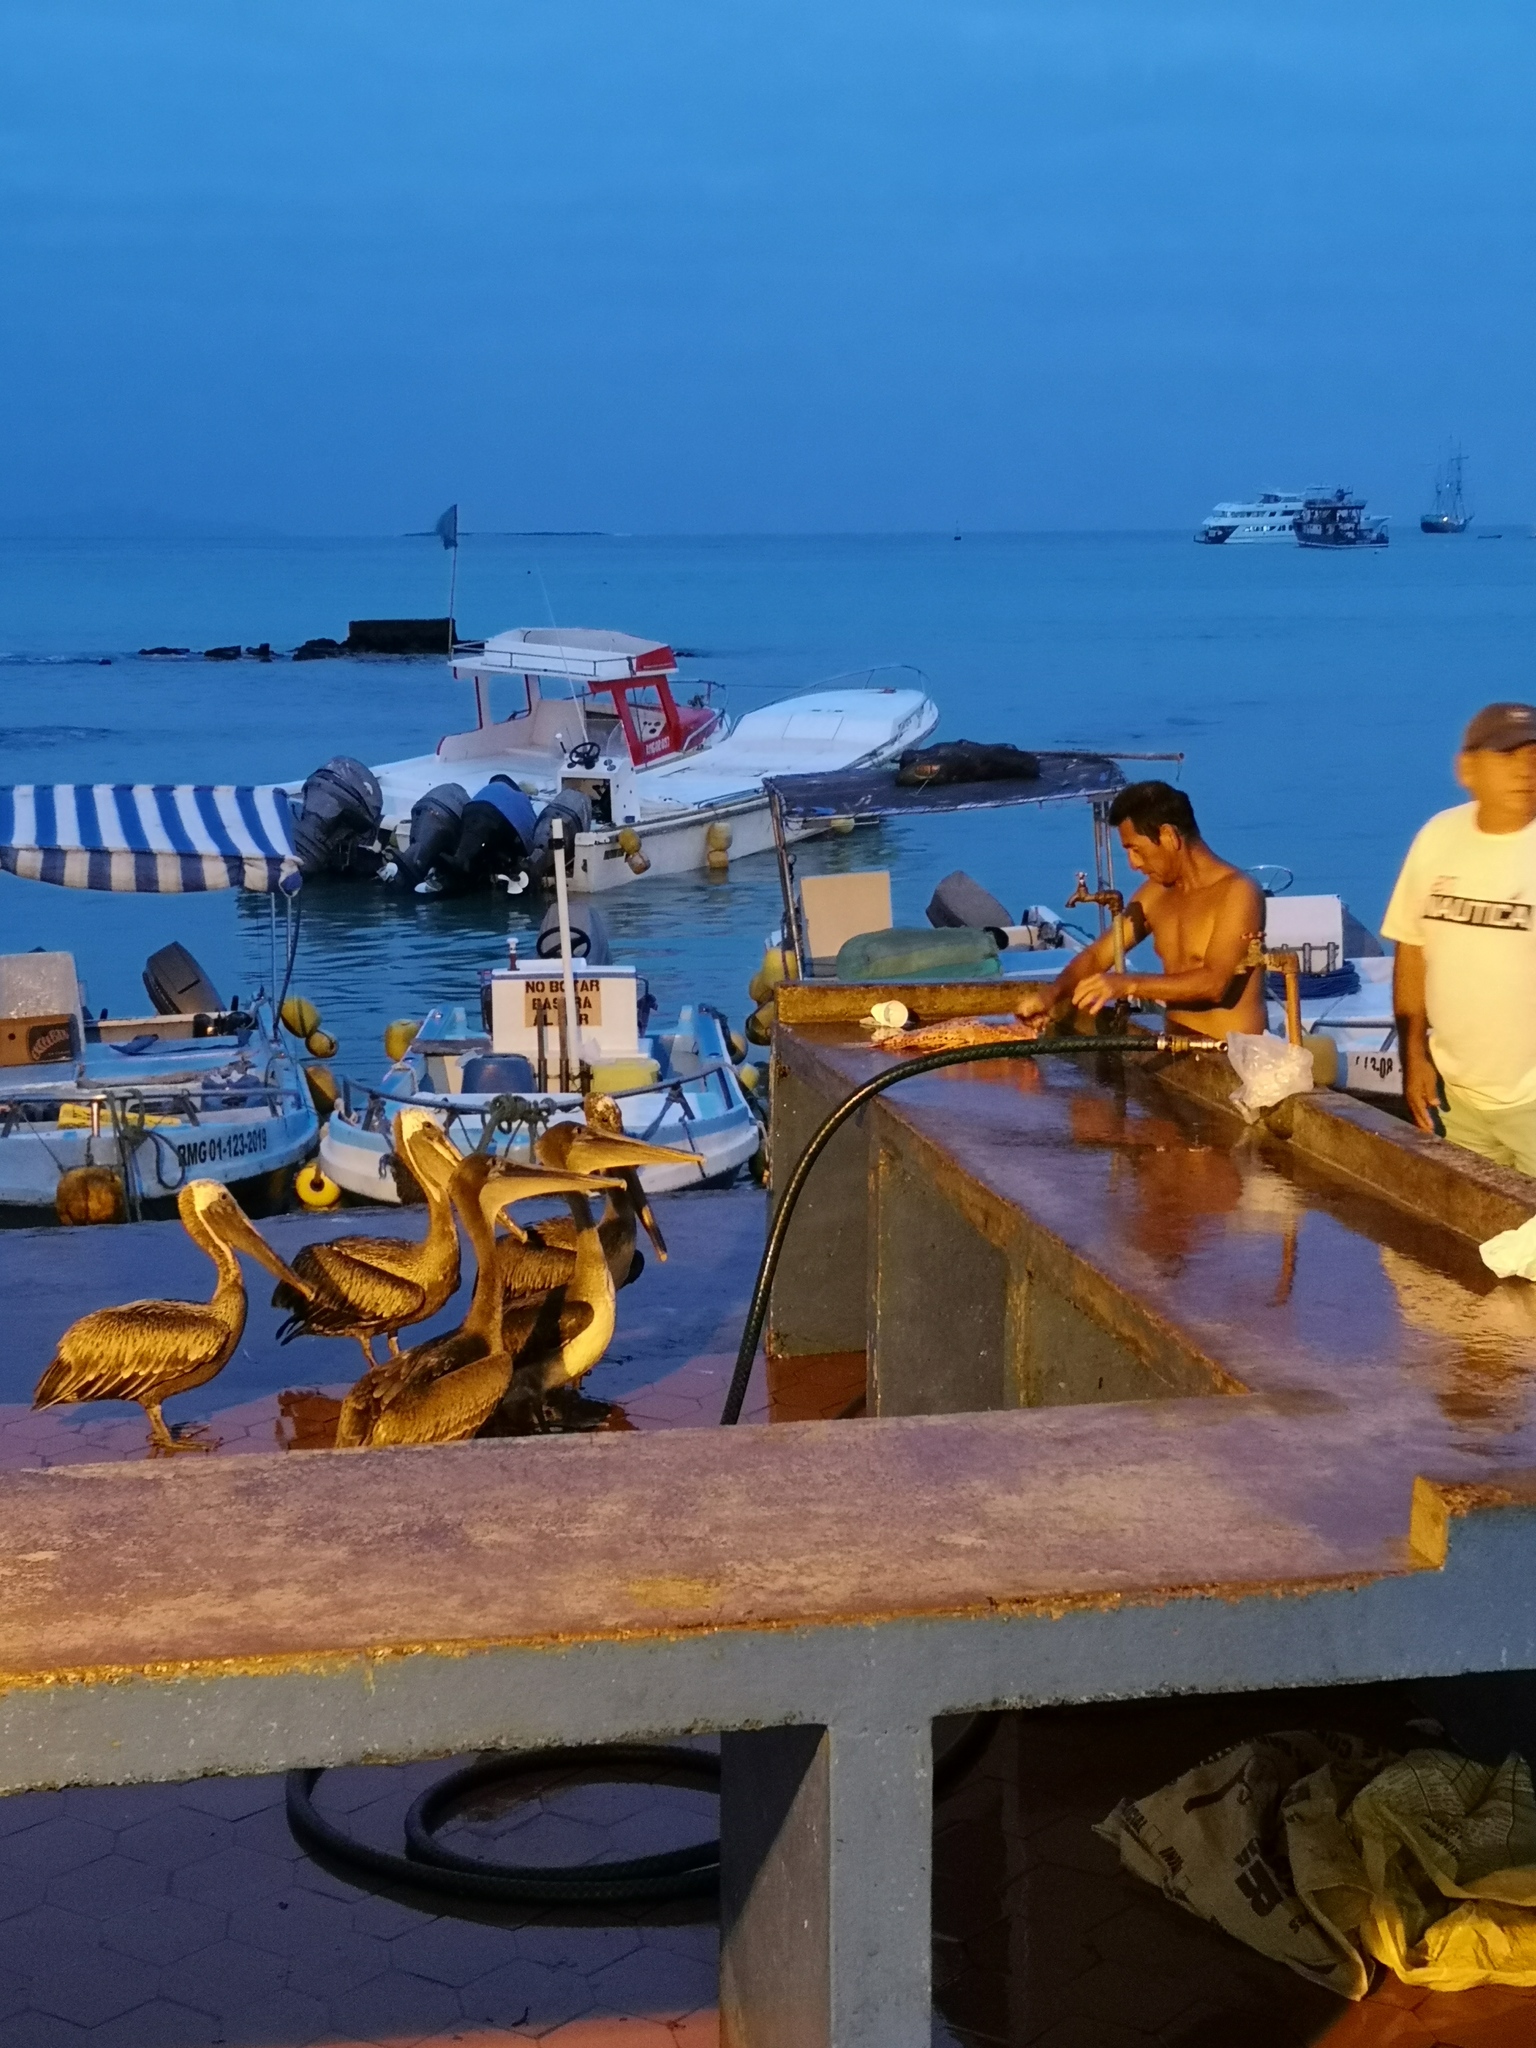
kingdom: Animalia
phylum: Chordata
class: Aves
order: Pelecaniformes
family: Pelecanidae
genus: Pelecanus
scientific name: Pelecanus occidentalis
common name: Brown pelican
